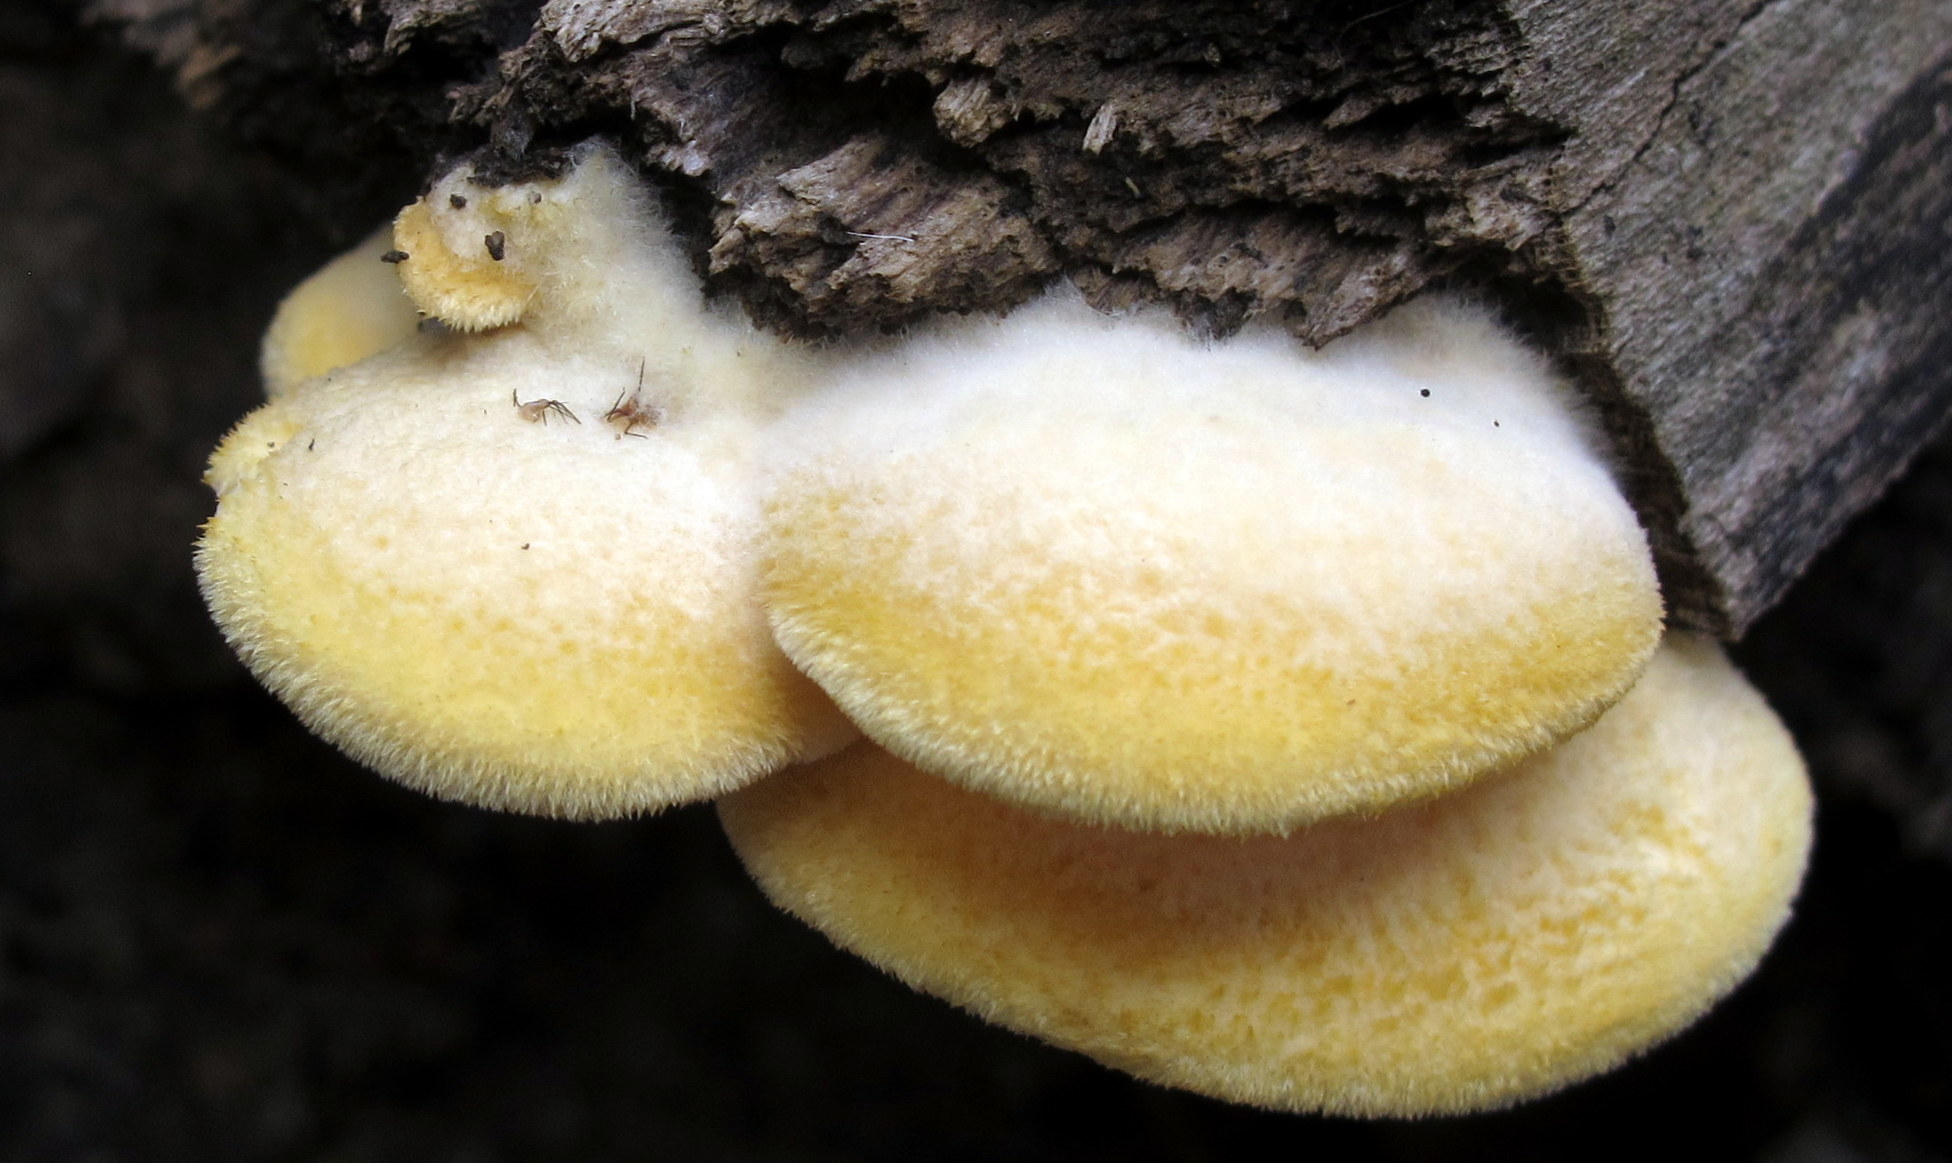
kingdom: Fungi
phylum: Basidiomycota
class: Agaricomycetes
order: Agaricales
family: Phyllotopsidaceae
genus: Phyllotopsis
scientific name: Phyllotopsis nidulans
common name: Orange mock oyster
